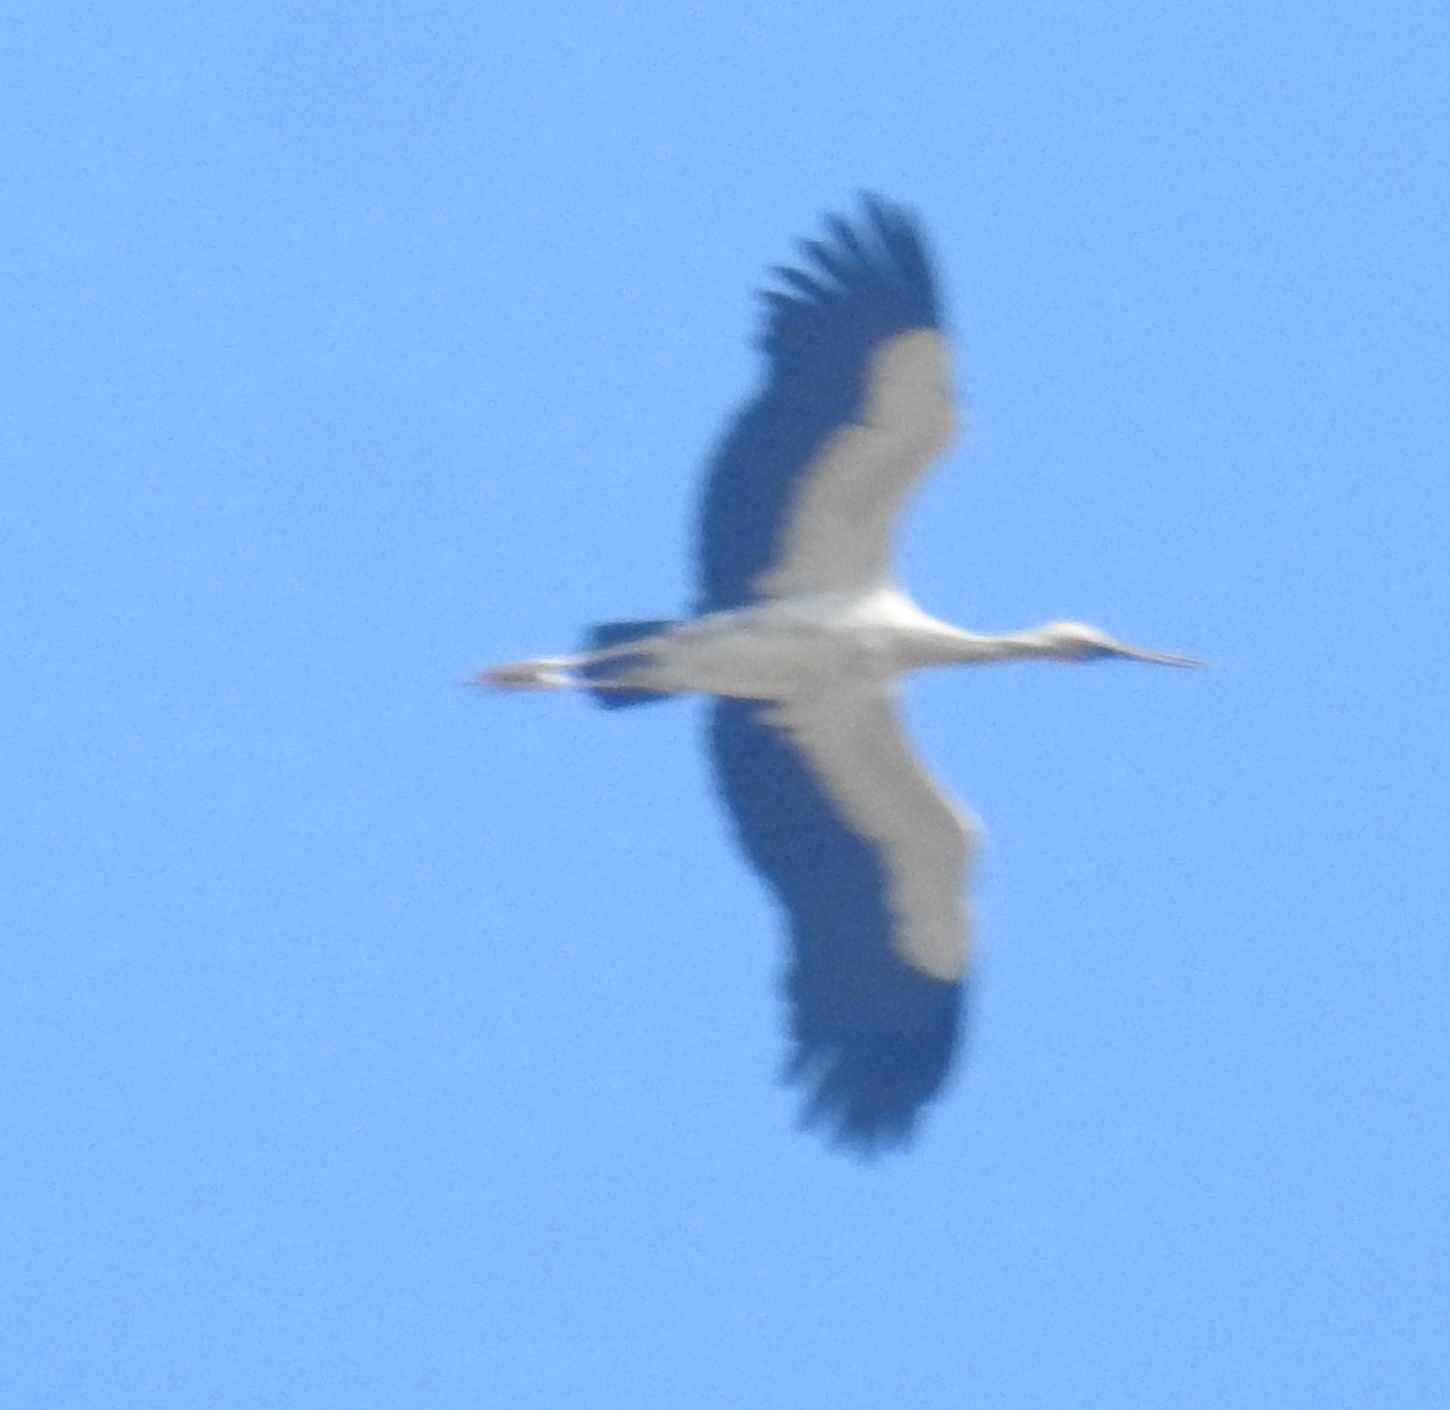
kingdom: Animalia
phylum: Chordata
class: Aves
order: Ciconiiformes
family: Ciconiidae
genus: Ciconia
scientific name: Ciconia ciconia
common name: White stork
